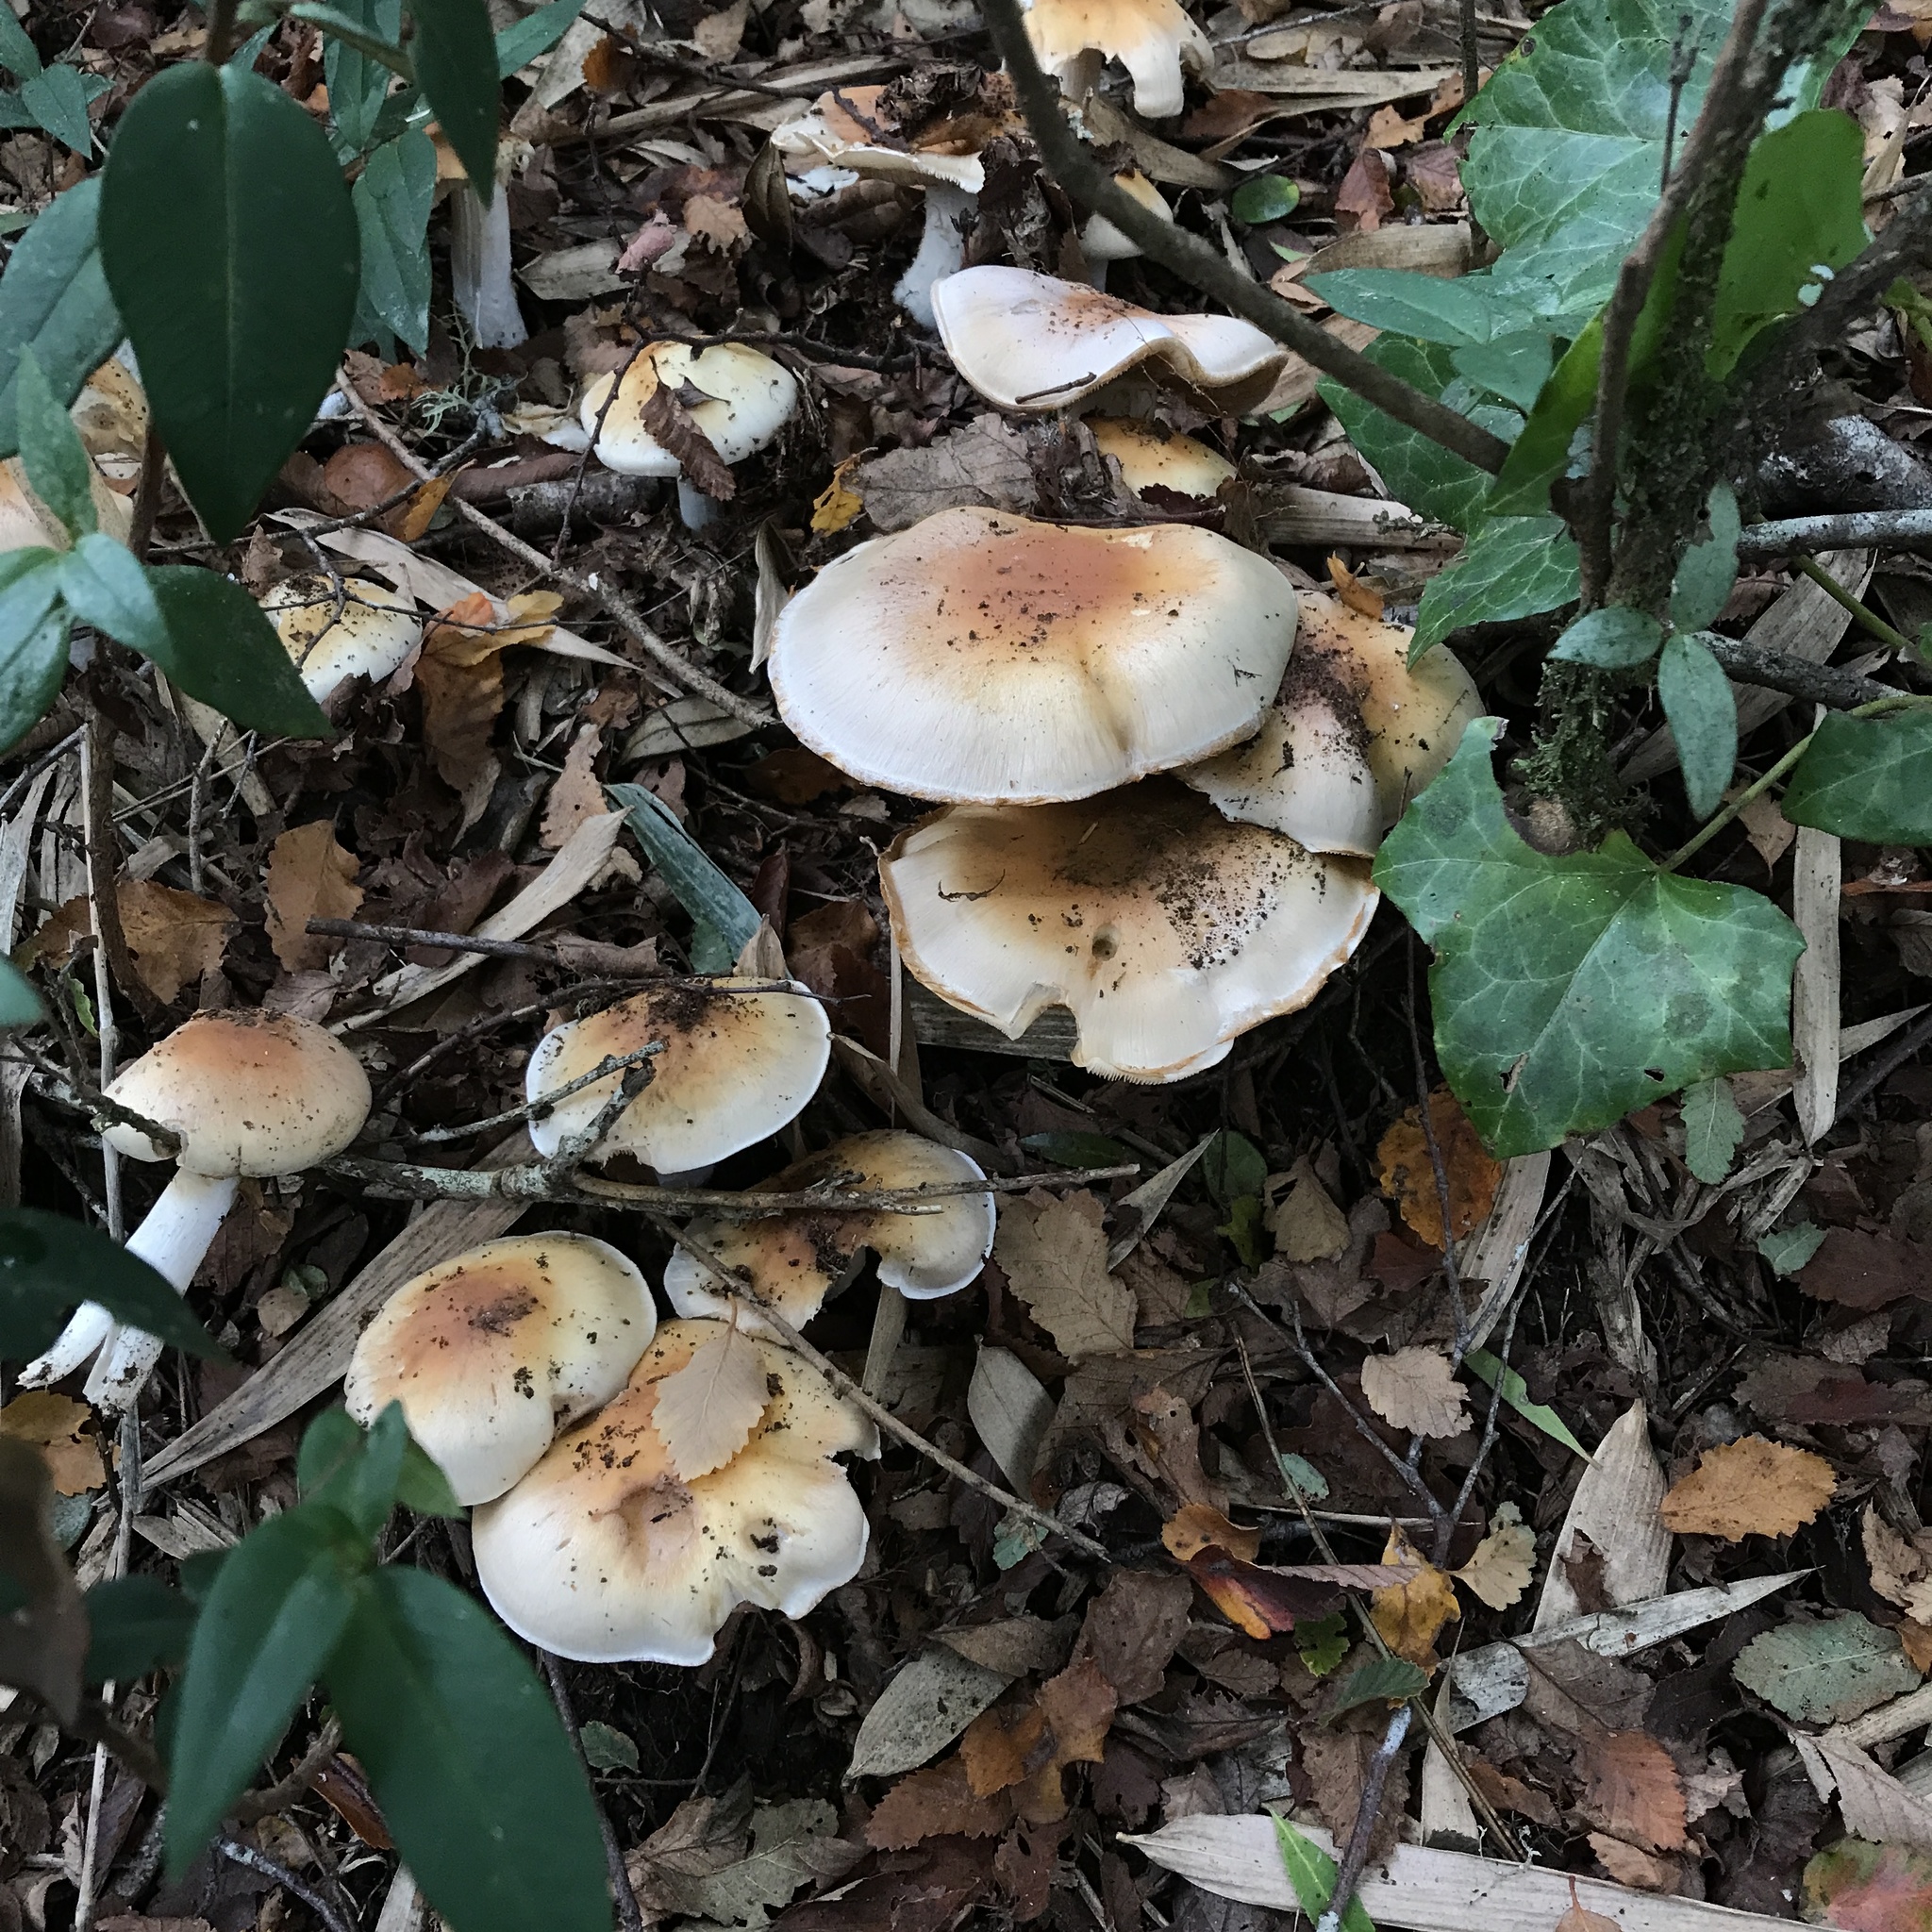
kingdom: Fungi
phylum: Basidiomycota
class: Agaricomycetes
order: Agaricales
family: Cortinariaceae
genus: Thaxterogaster
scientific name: Thaxterogaster austroturmalis
